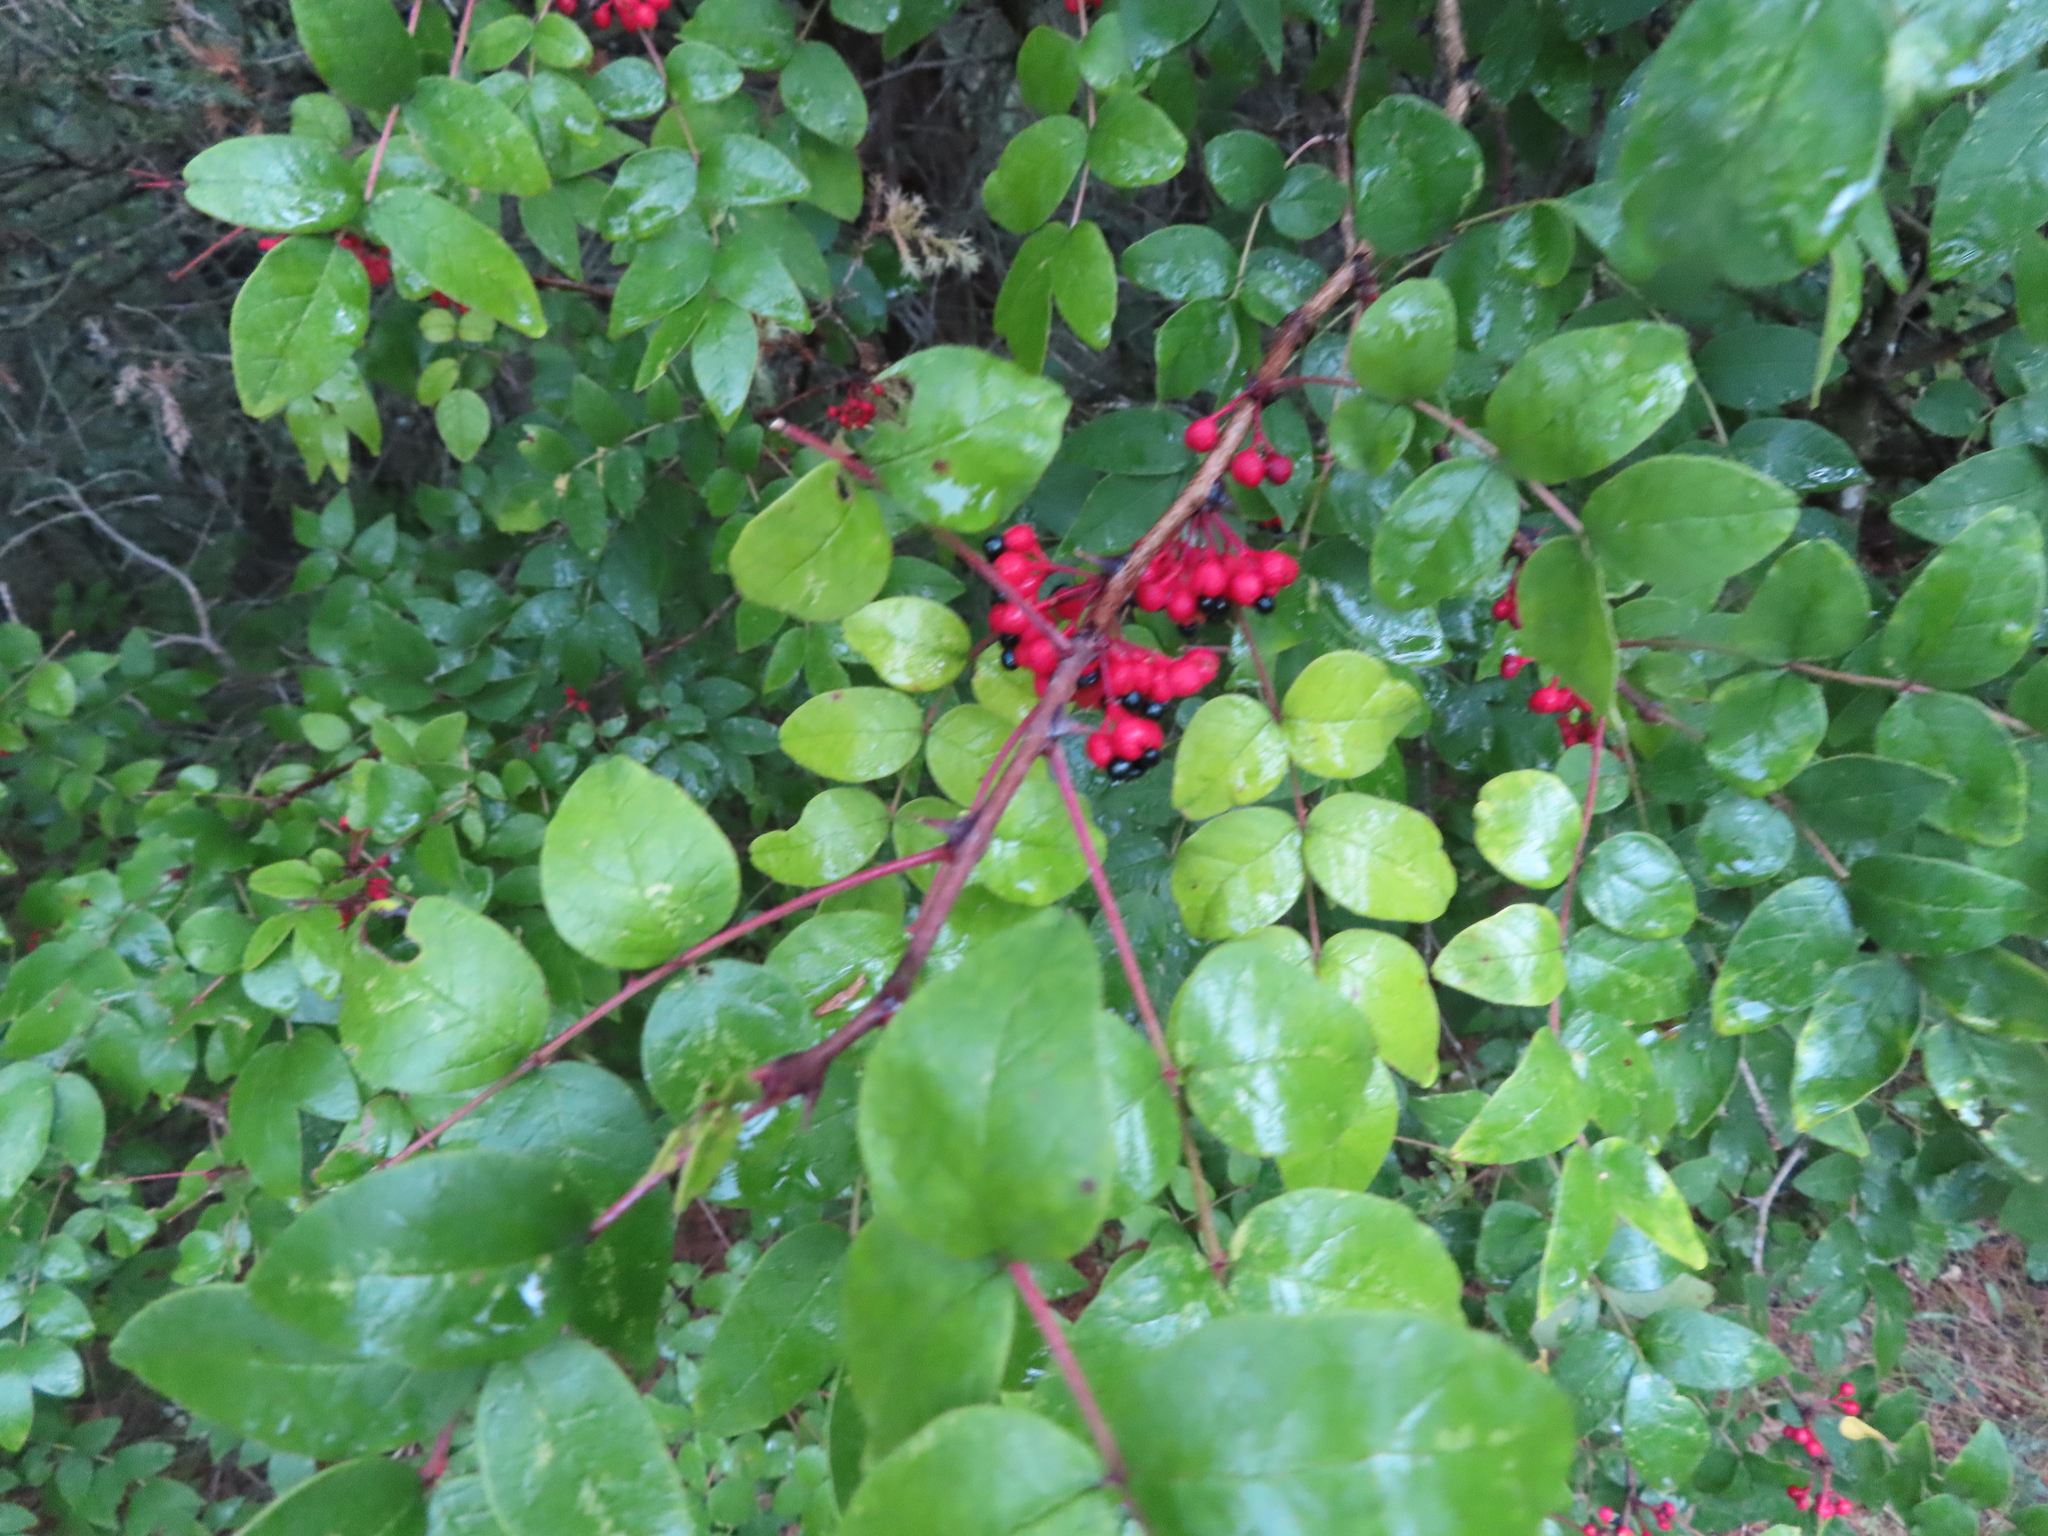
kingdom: Plantae
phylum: Tracheophyta
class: Magnoliopsida
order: Sapindales
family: Rutaceae
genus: Zanthoxylum
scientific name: Zanthoxylum americanum
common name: Northern prickly-ash
